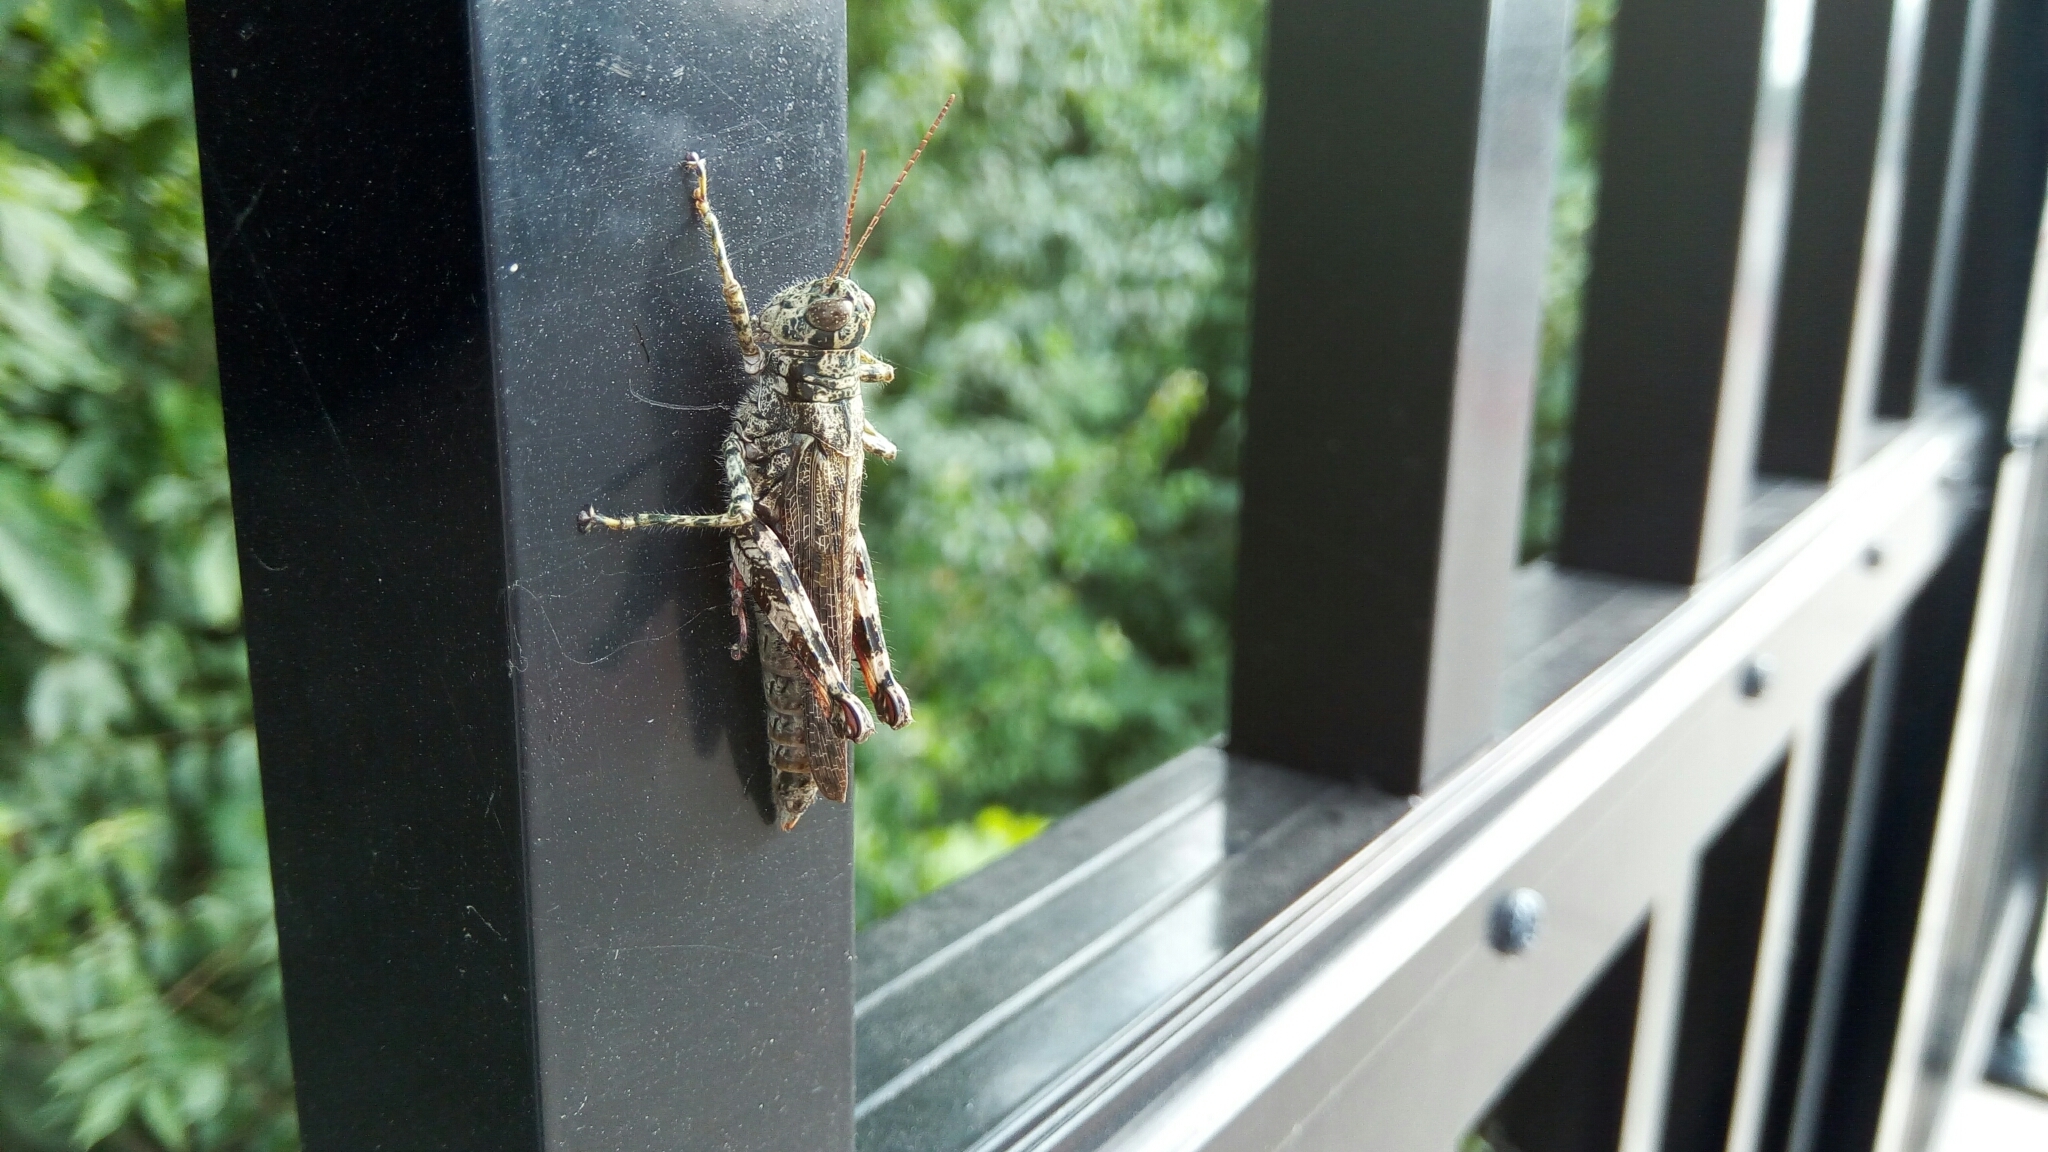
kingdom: Animalia
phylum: Arthropoda
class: Insecta
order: Orthoptera
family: Acrididae
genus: Melanoplus
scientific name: Melanoplus punctulatus
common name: Pine-tree spur-throat grasshopper
